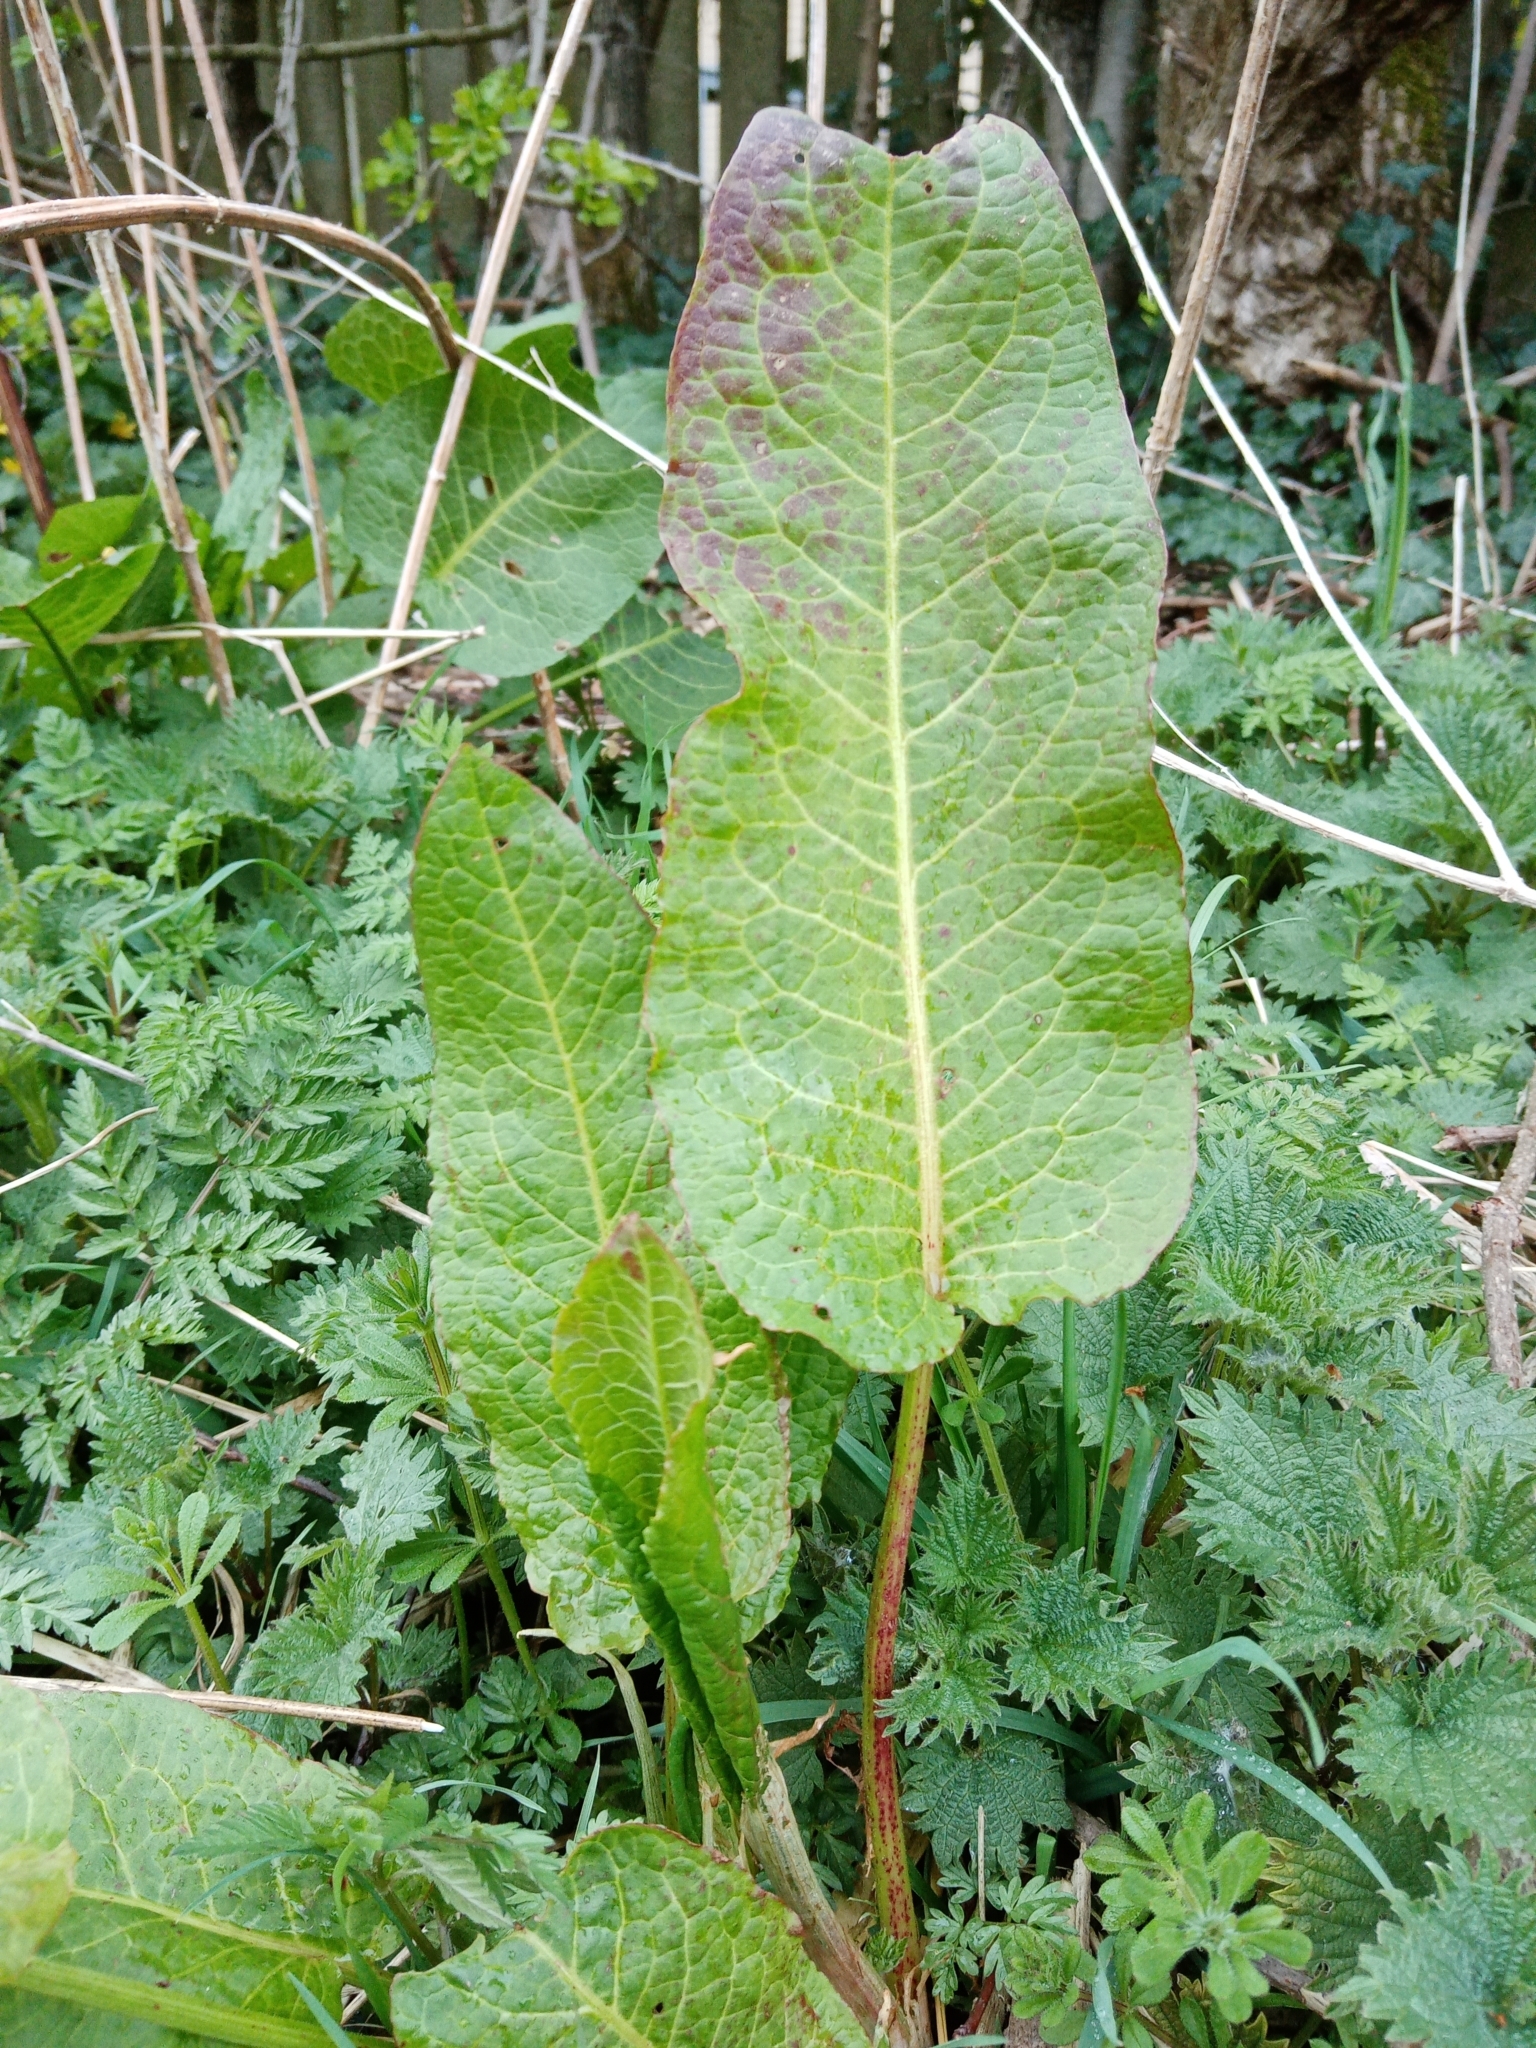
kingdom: Plantae
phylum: Tracheophyta
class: Magnoliopsida
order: Caryophyllales
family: Polygonaceae
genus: Rumex
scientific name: Rumex obtusifolius
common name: Bitter dock
